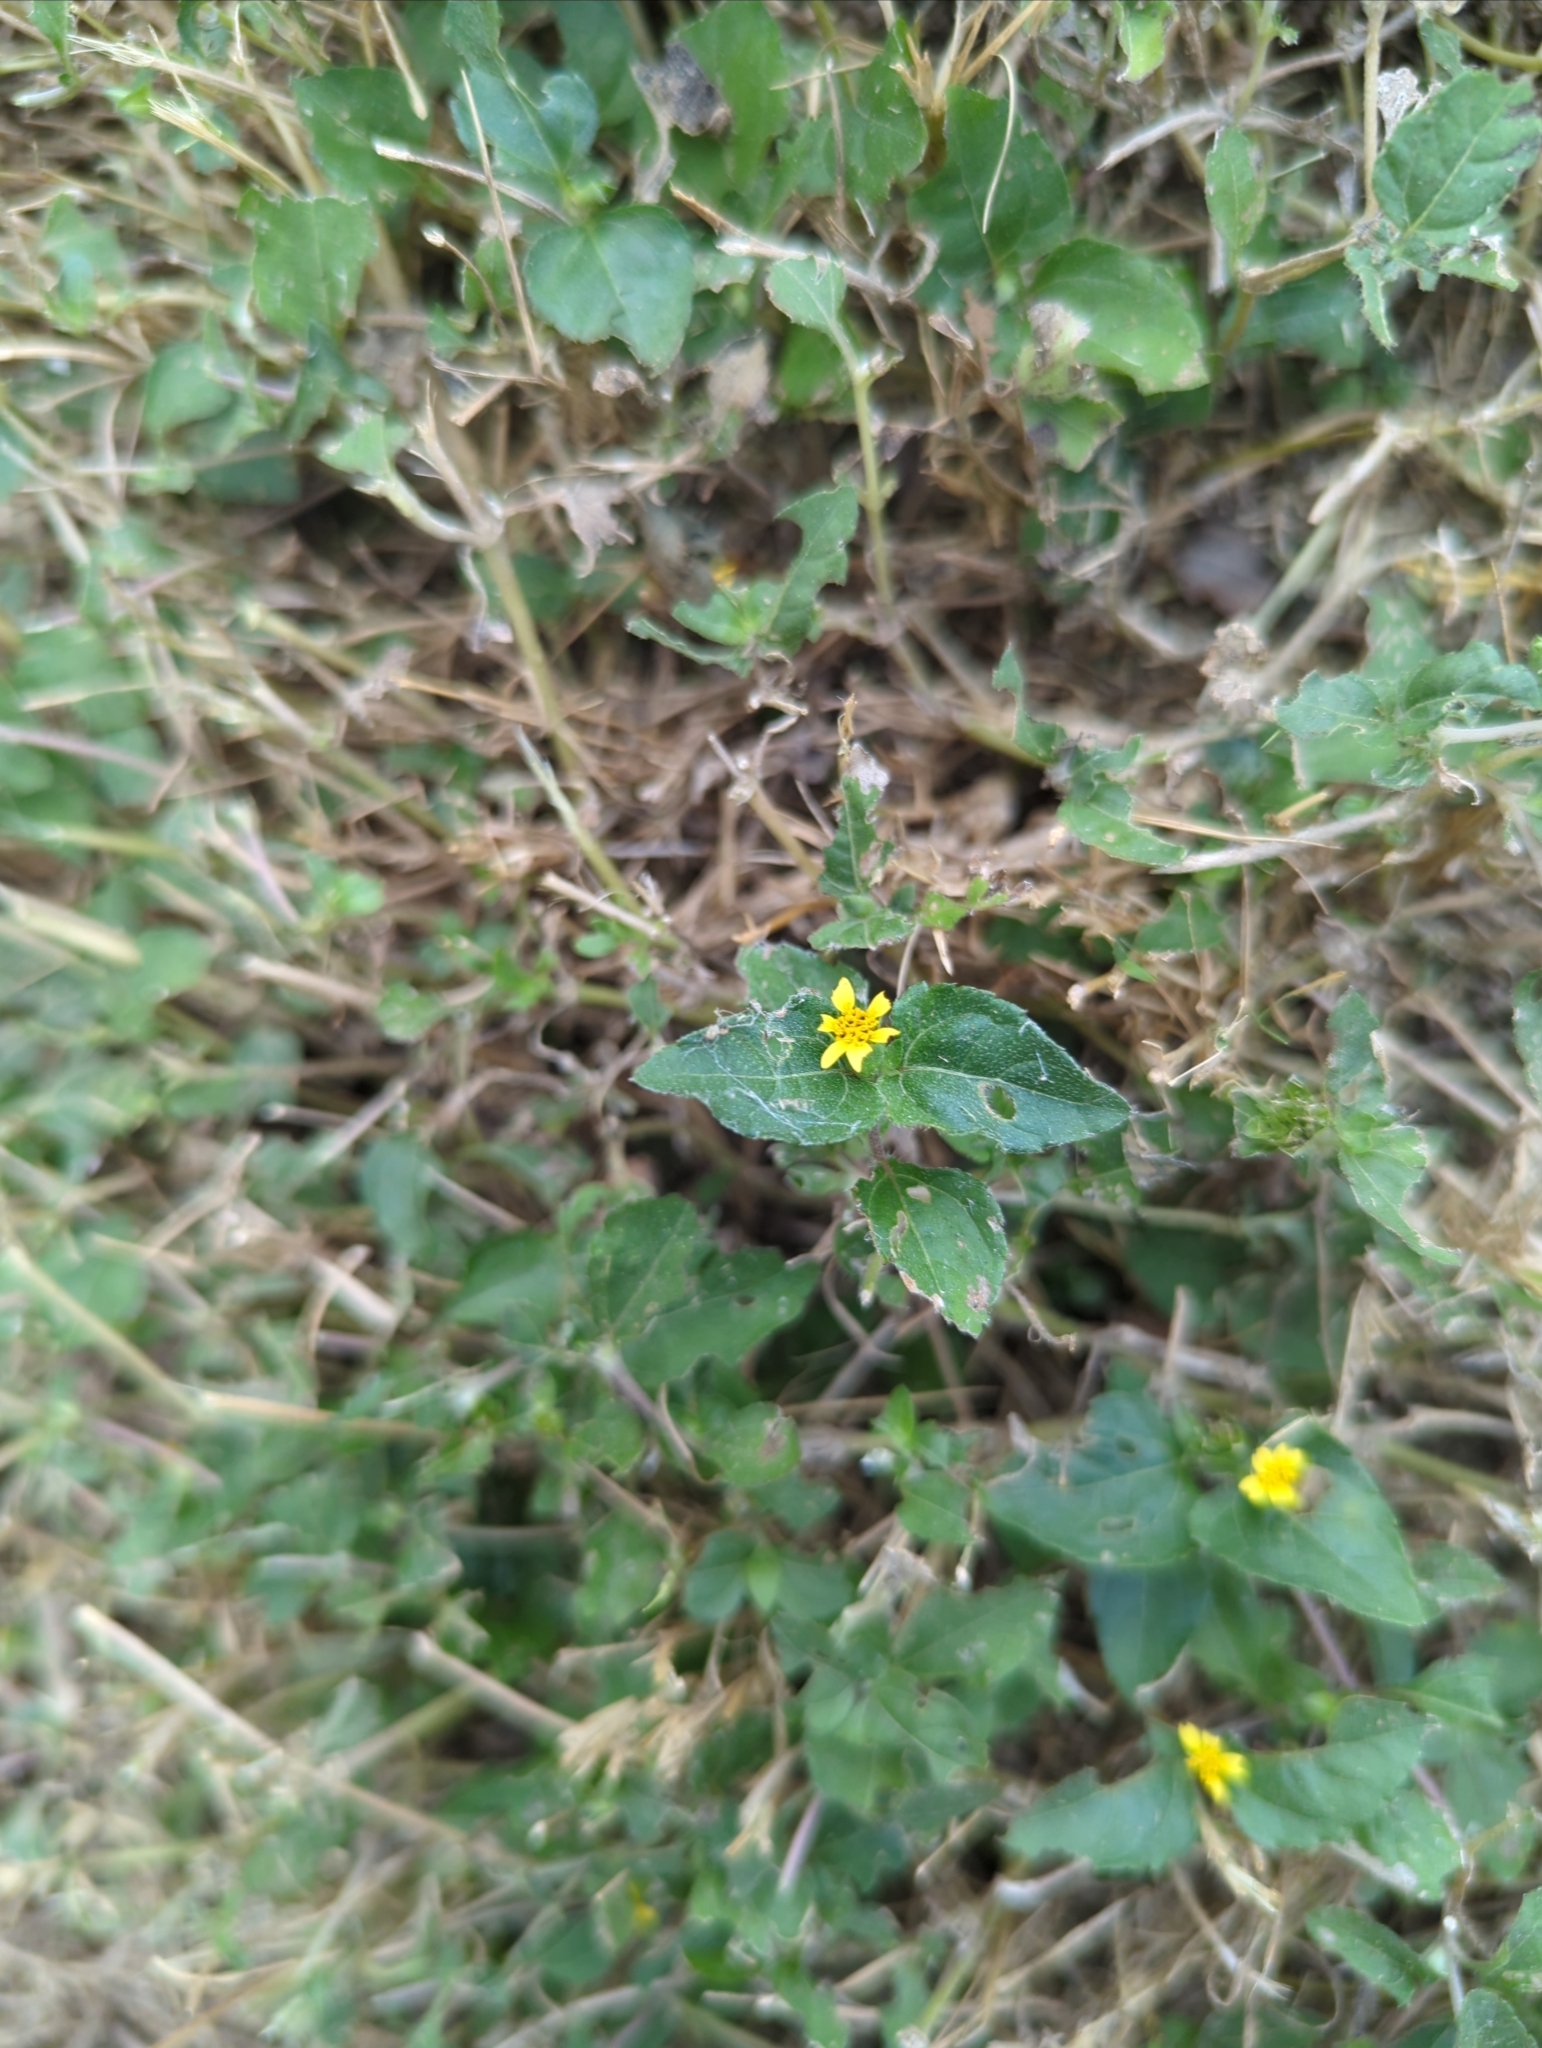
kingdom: Plantae
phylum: Tracheophyta
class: Magnoliopsida
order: Asterales
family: Asteraceae
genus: Calyptocarpus
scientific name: Calyptocarpus vialis
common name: Straggler daisy
